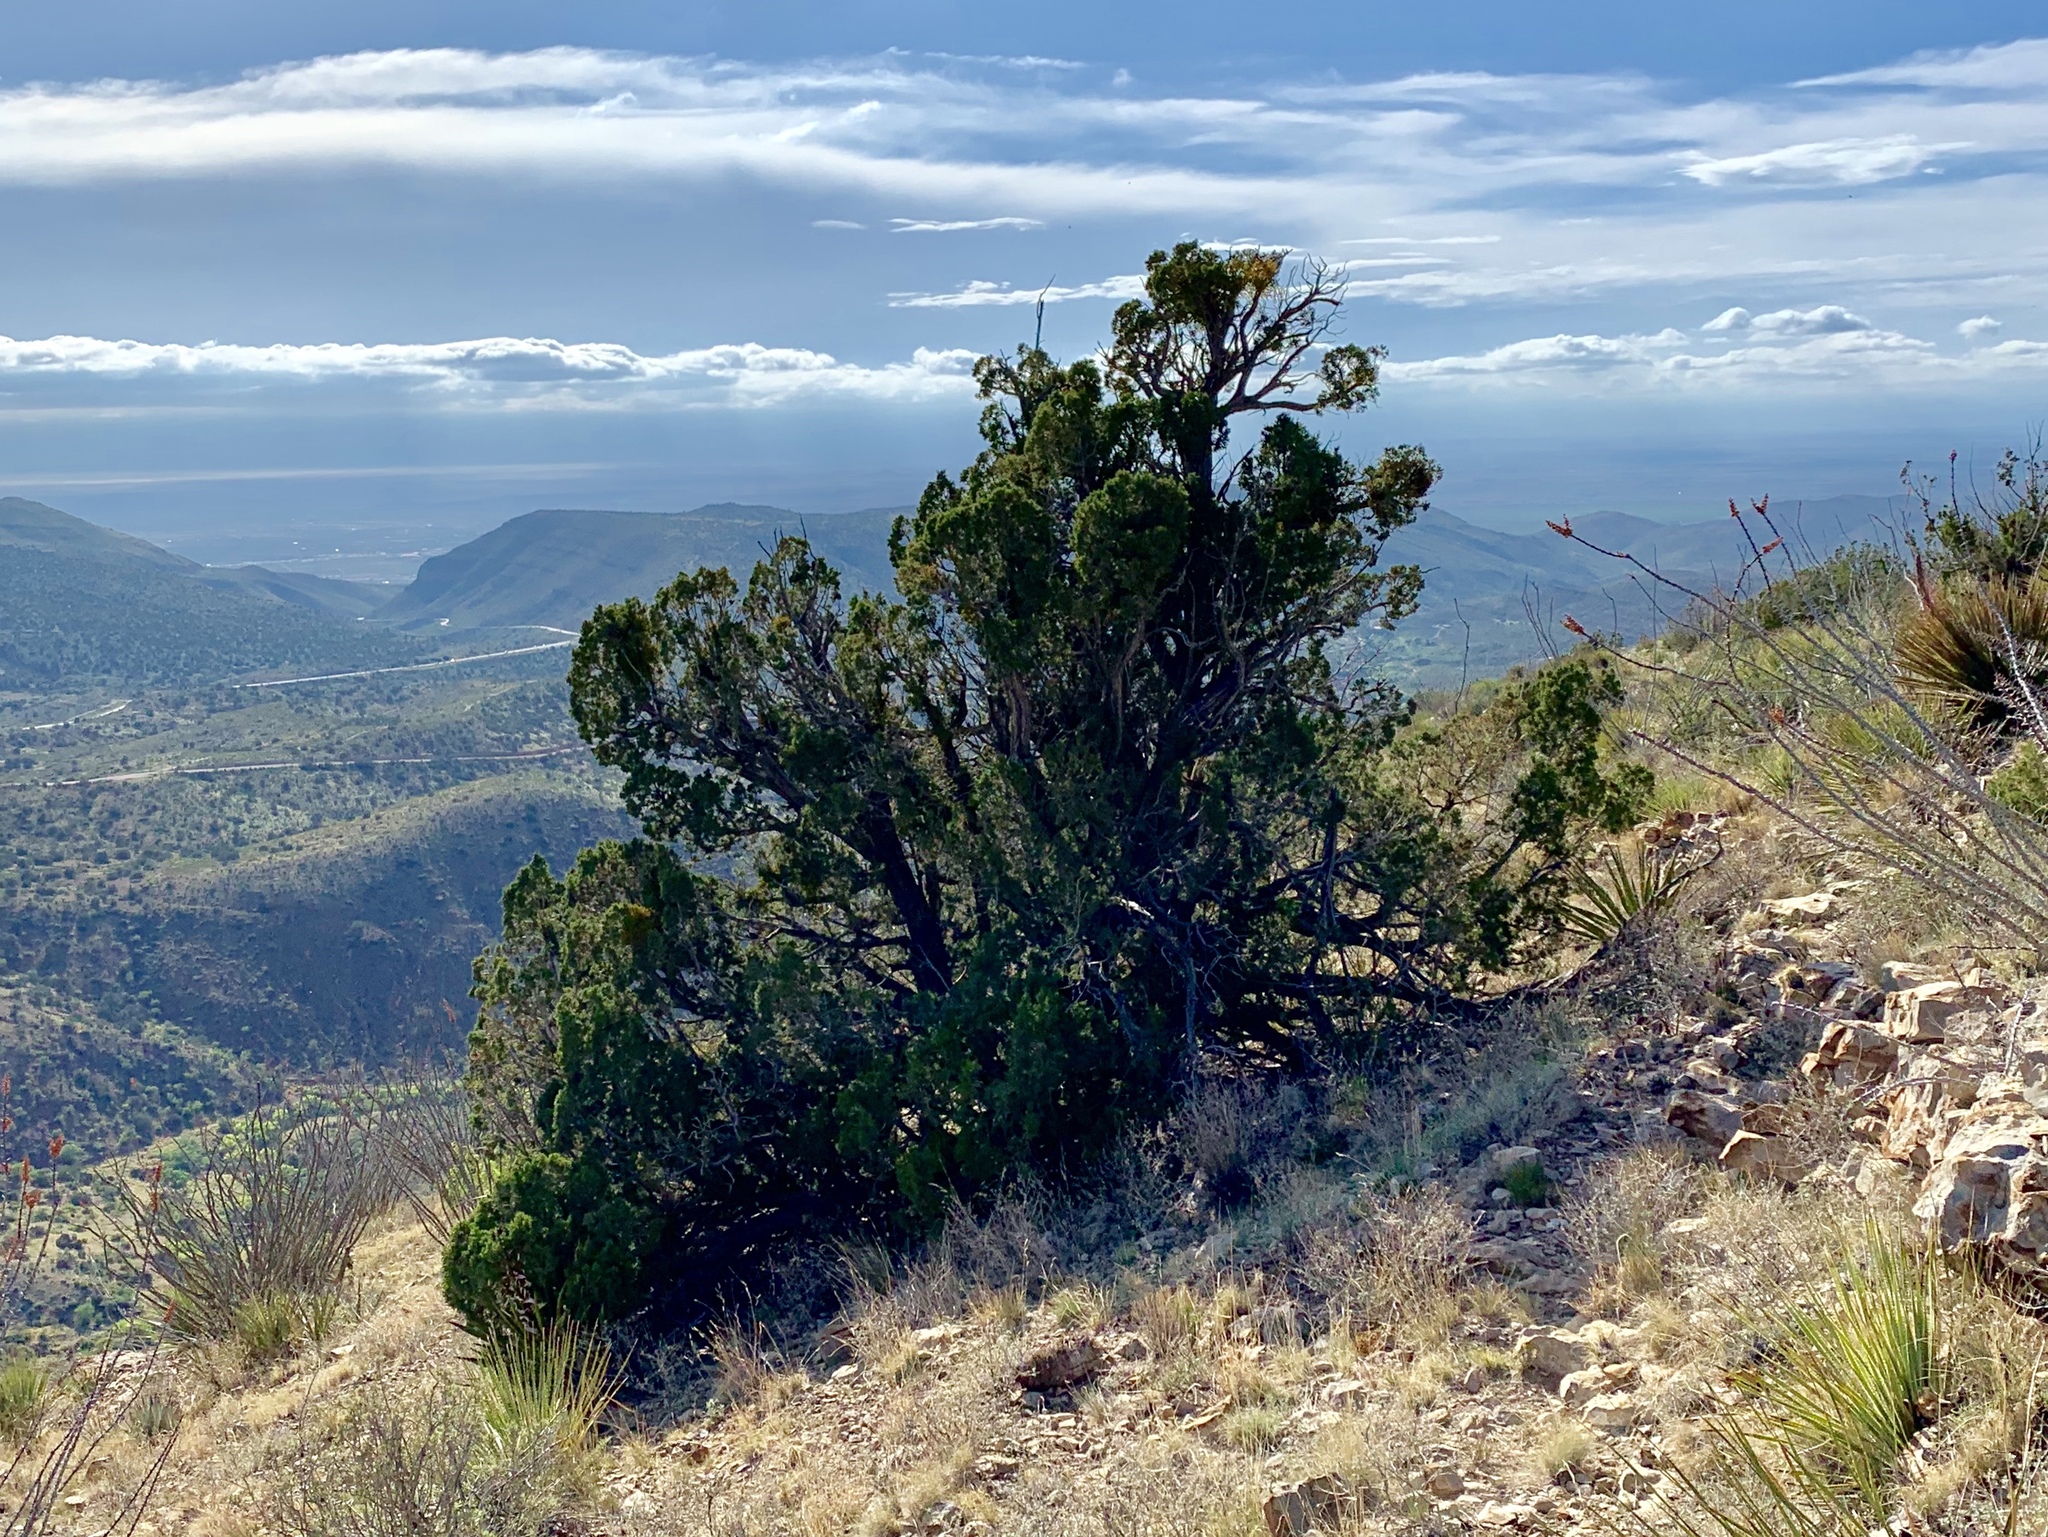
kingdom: Plantae
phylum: Tracheophyta
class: Pinopsida
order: Pinales
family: Cupressaceae
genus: Juniperus
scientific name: Juniperus monosperma
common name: One-seed juniper
